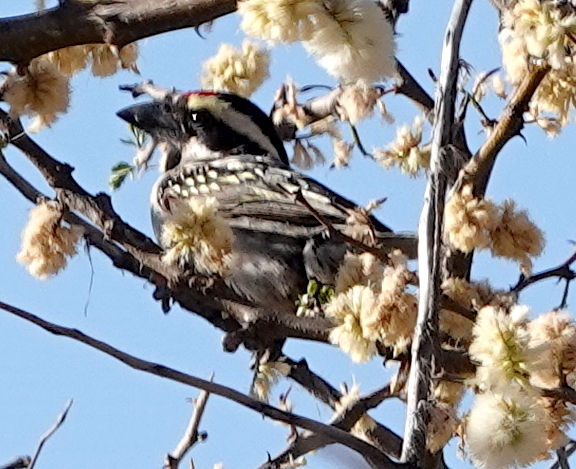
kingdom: Animalia
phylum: Chordata
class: Aves
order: Piciformes
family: Lybiidae
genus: Tricholaema
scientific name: Tricholaema leucomelas
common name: Acacia pied barbet
